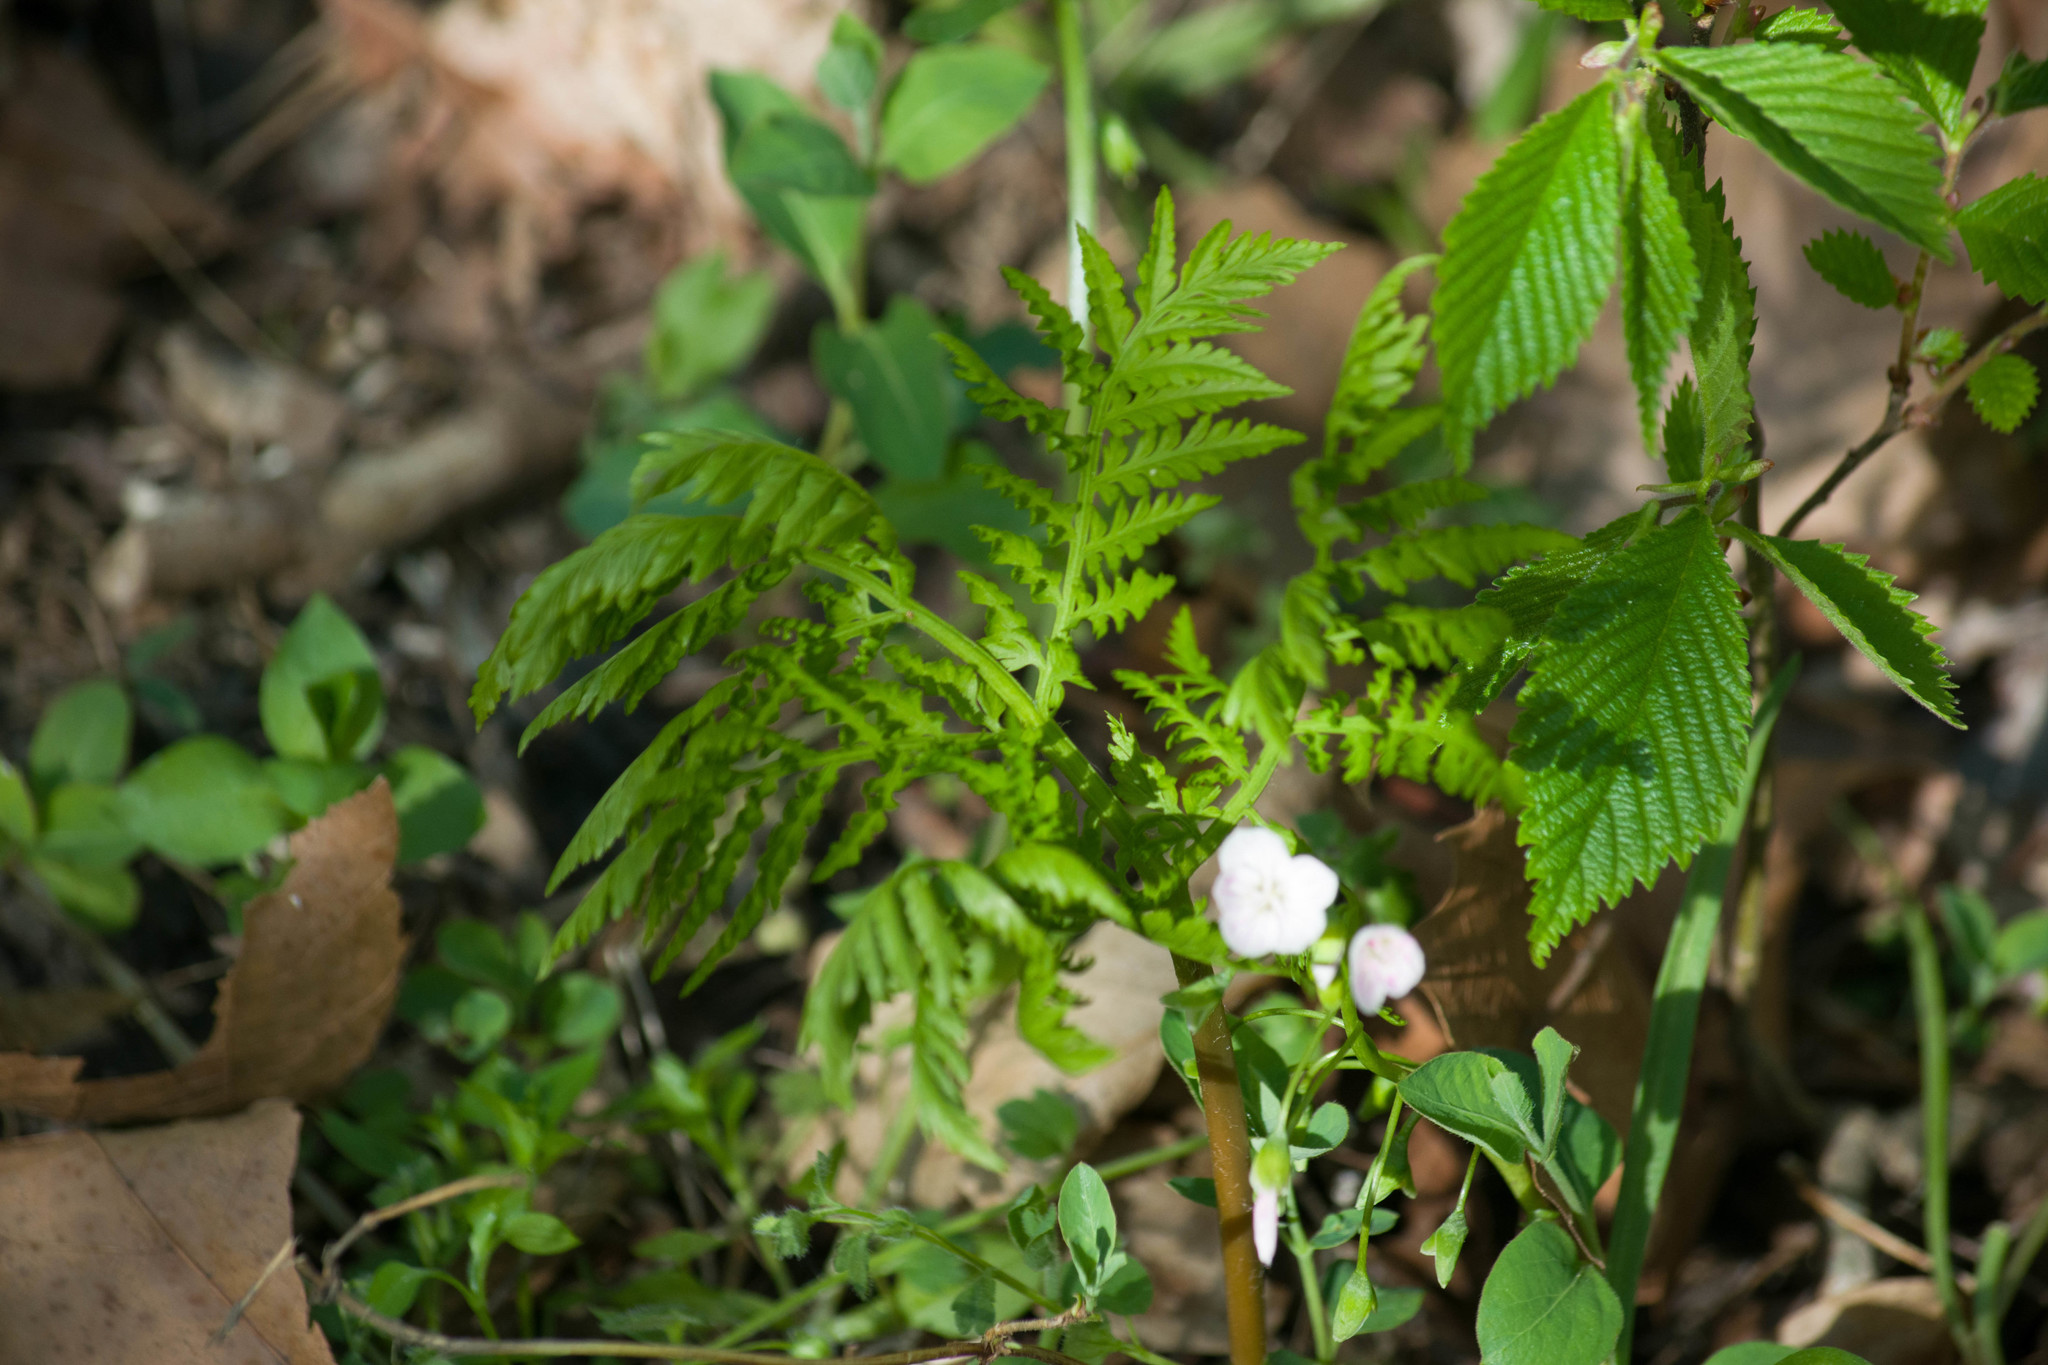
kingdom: Plantae
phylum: Tracheophyta
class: Polypodiopsida
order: Ophioglossales
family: Ophioglossaceae
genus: Botrypus
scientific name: Botrypus virginianus
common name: Common grapefern
